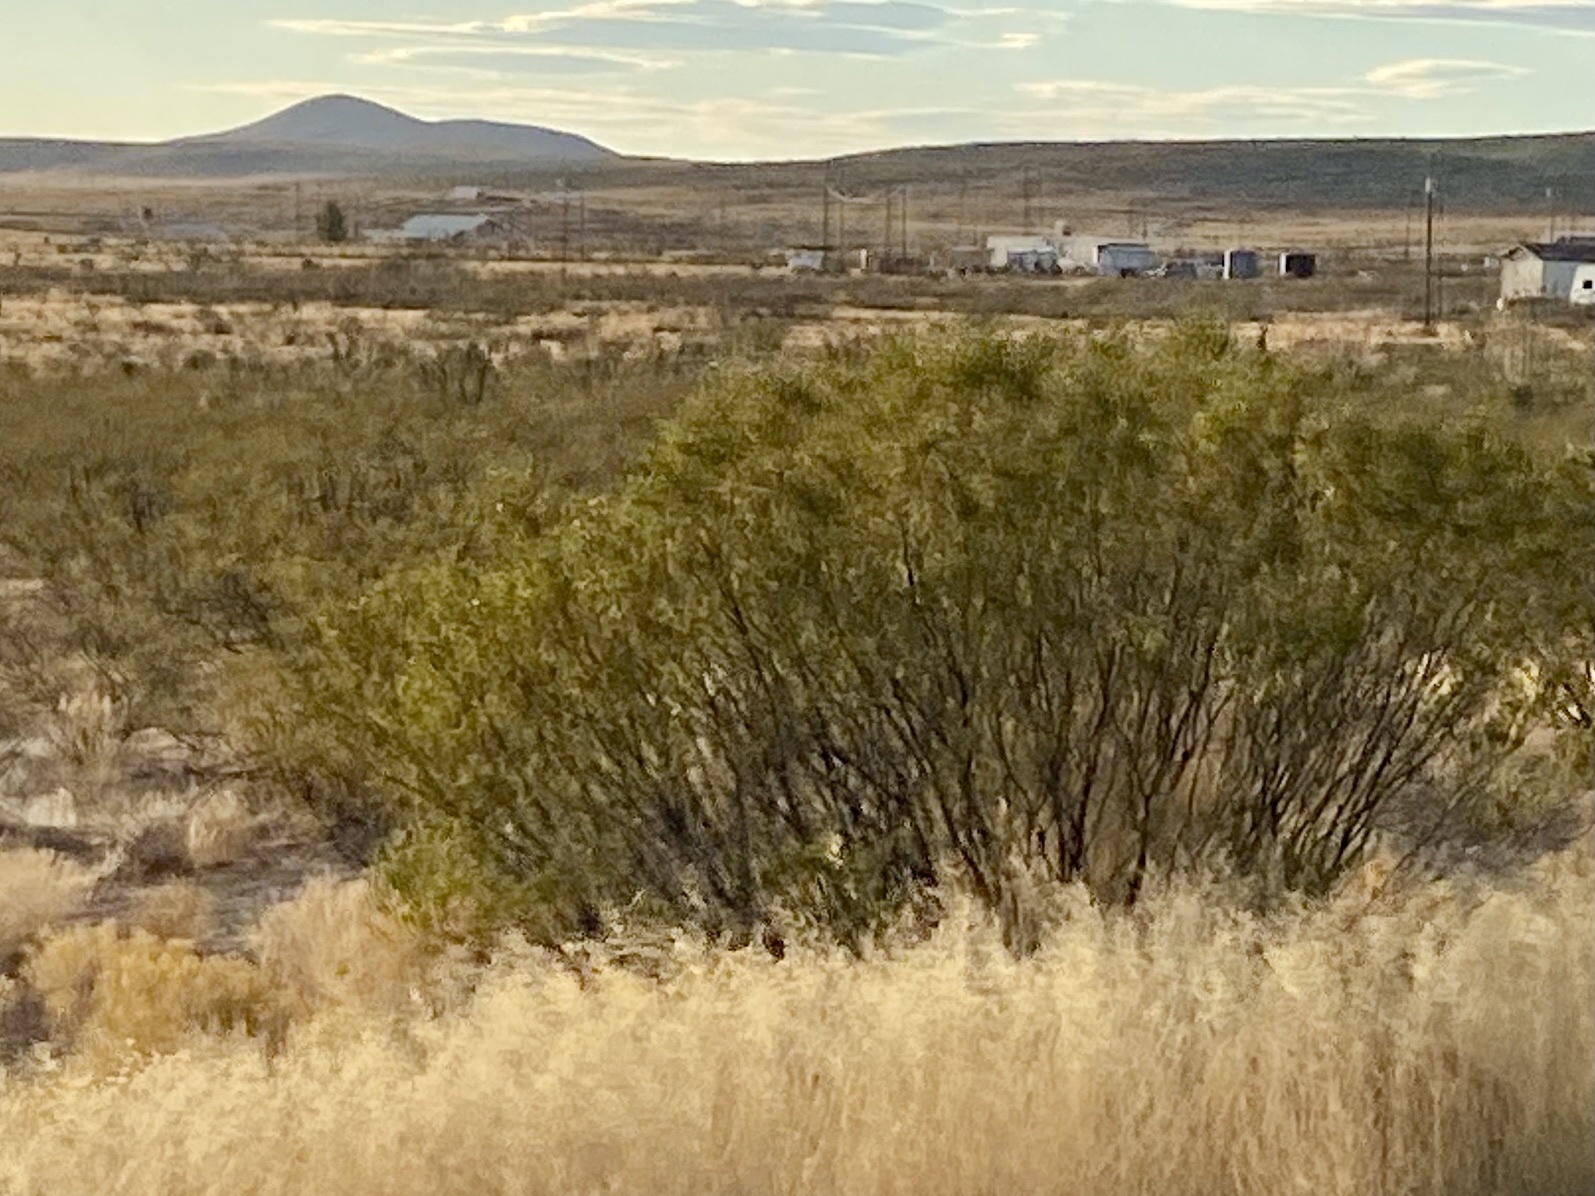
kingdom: Plantae
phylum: Tracheophyta
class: Magnoliopsida
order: Zygophyllales
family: Zygophyllaceae
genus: Larrea
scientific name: Larrea tridentata
